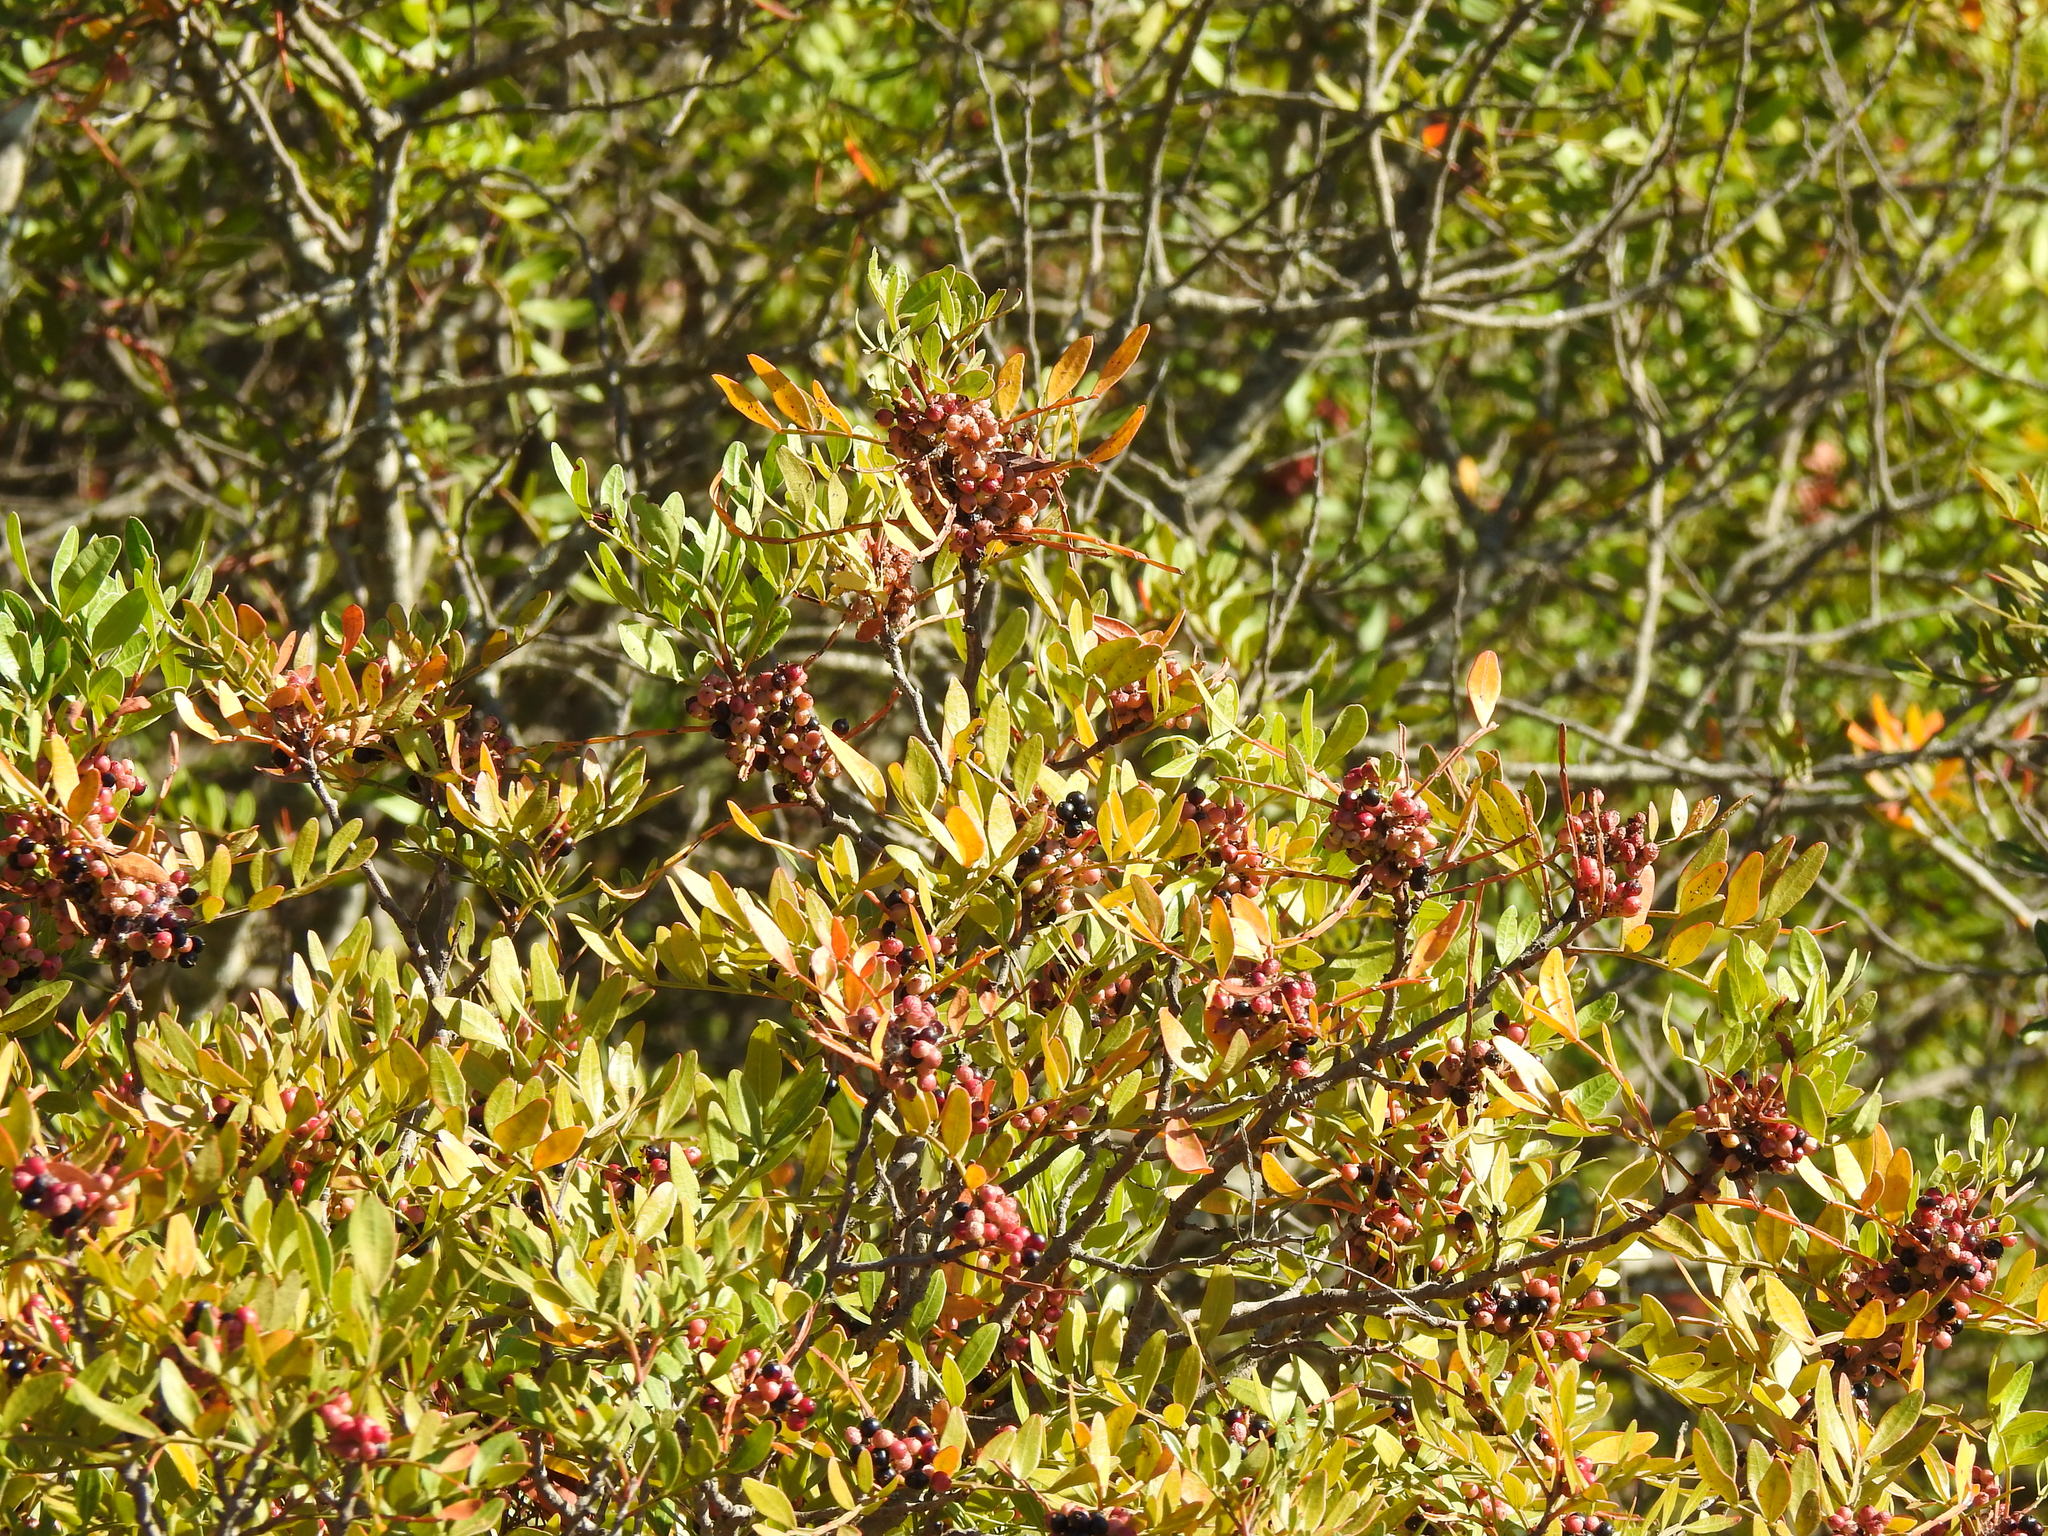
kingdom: Plantae
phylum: Tracheophyta
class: Magnoliopsida
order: Sapindales
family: Anacardiaceae
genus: Pistacia
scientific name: Pistacia lentiscus
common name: Lentisk
